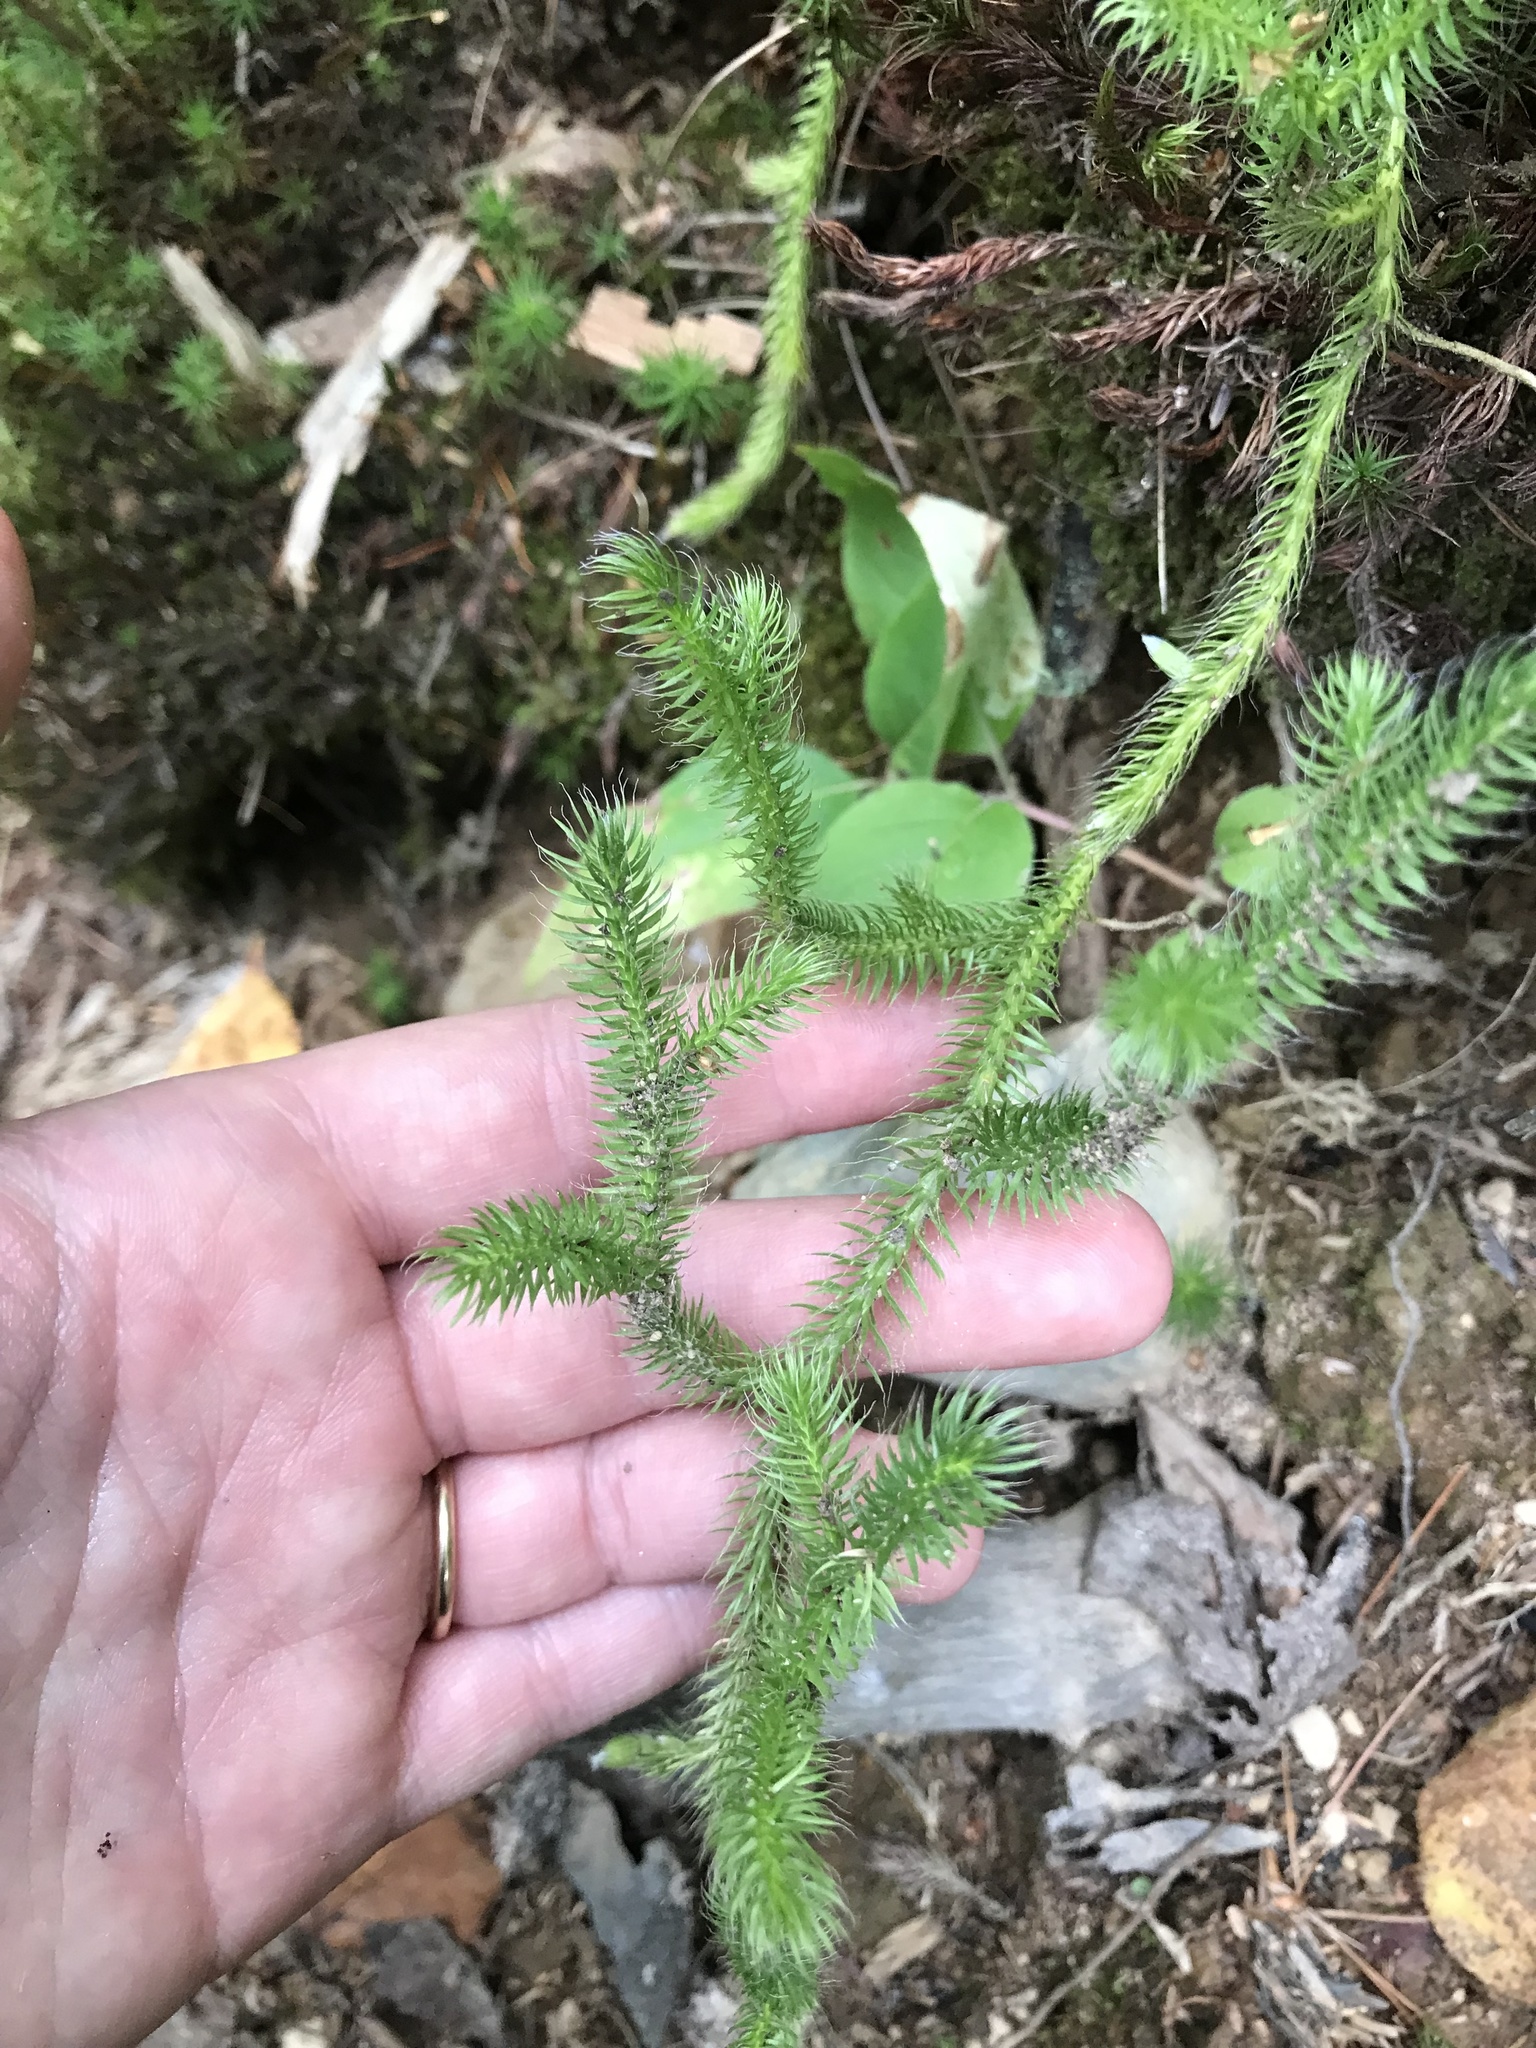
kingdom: Plantae
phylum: Tracheophyta
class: Lycopodiopsida
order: Lycopodiales
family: Lycopodiaceae
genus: Lycopodium
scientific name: Lycopodium clavatum
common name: Stag's-horn clubmoss
